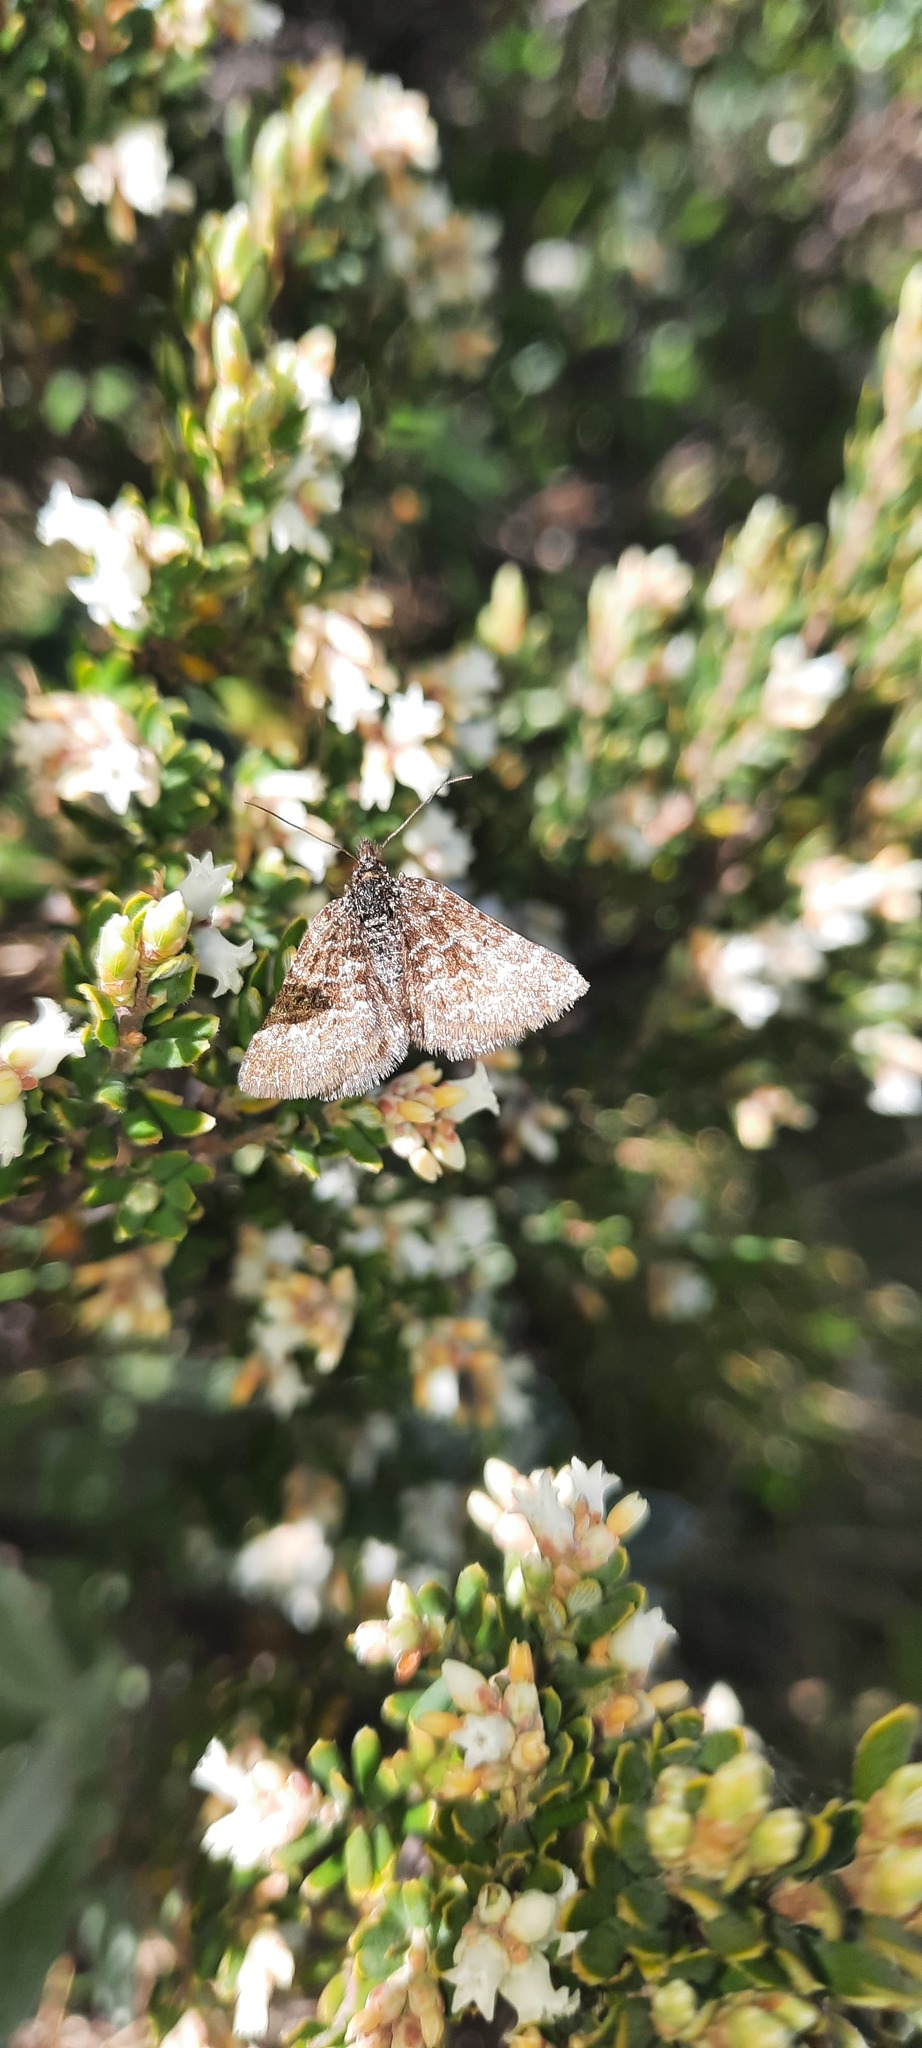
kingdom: Animalia
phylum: Arthropoda
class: Insecta
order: Lepidoptera
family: Geometridae
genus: Chrysolarentia
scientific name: Chrysolarentia melanchlaena
